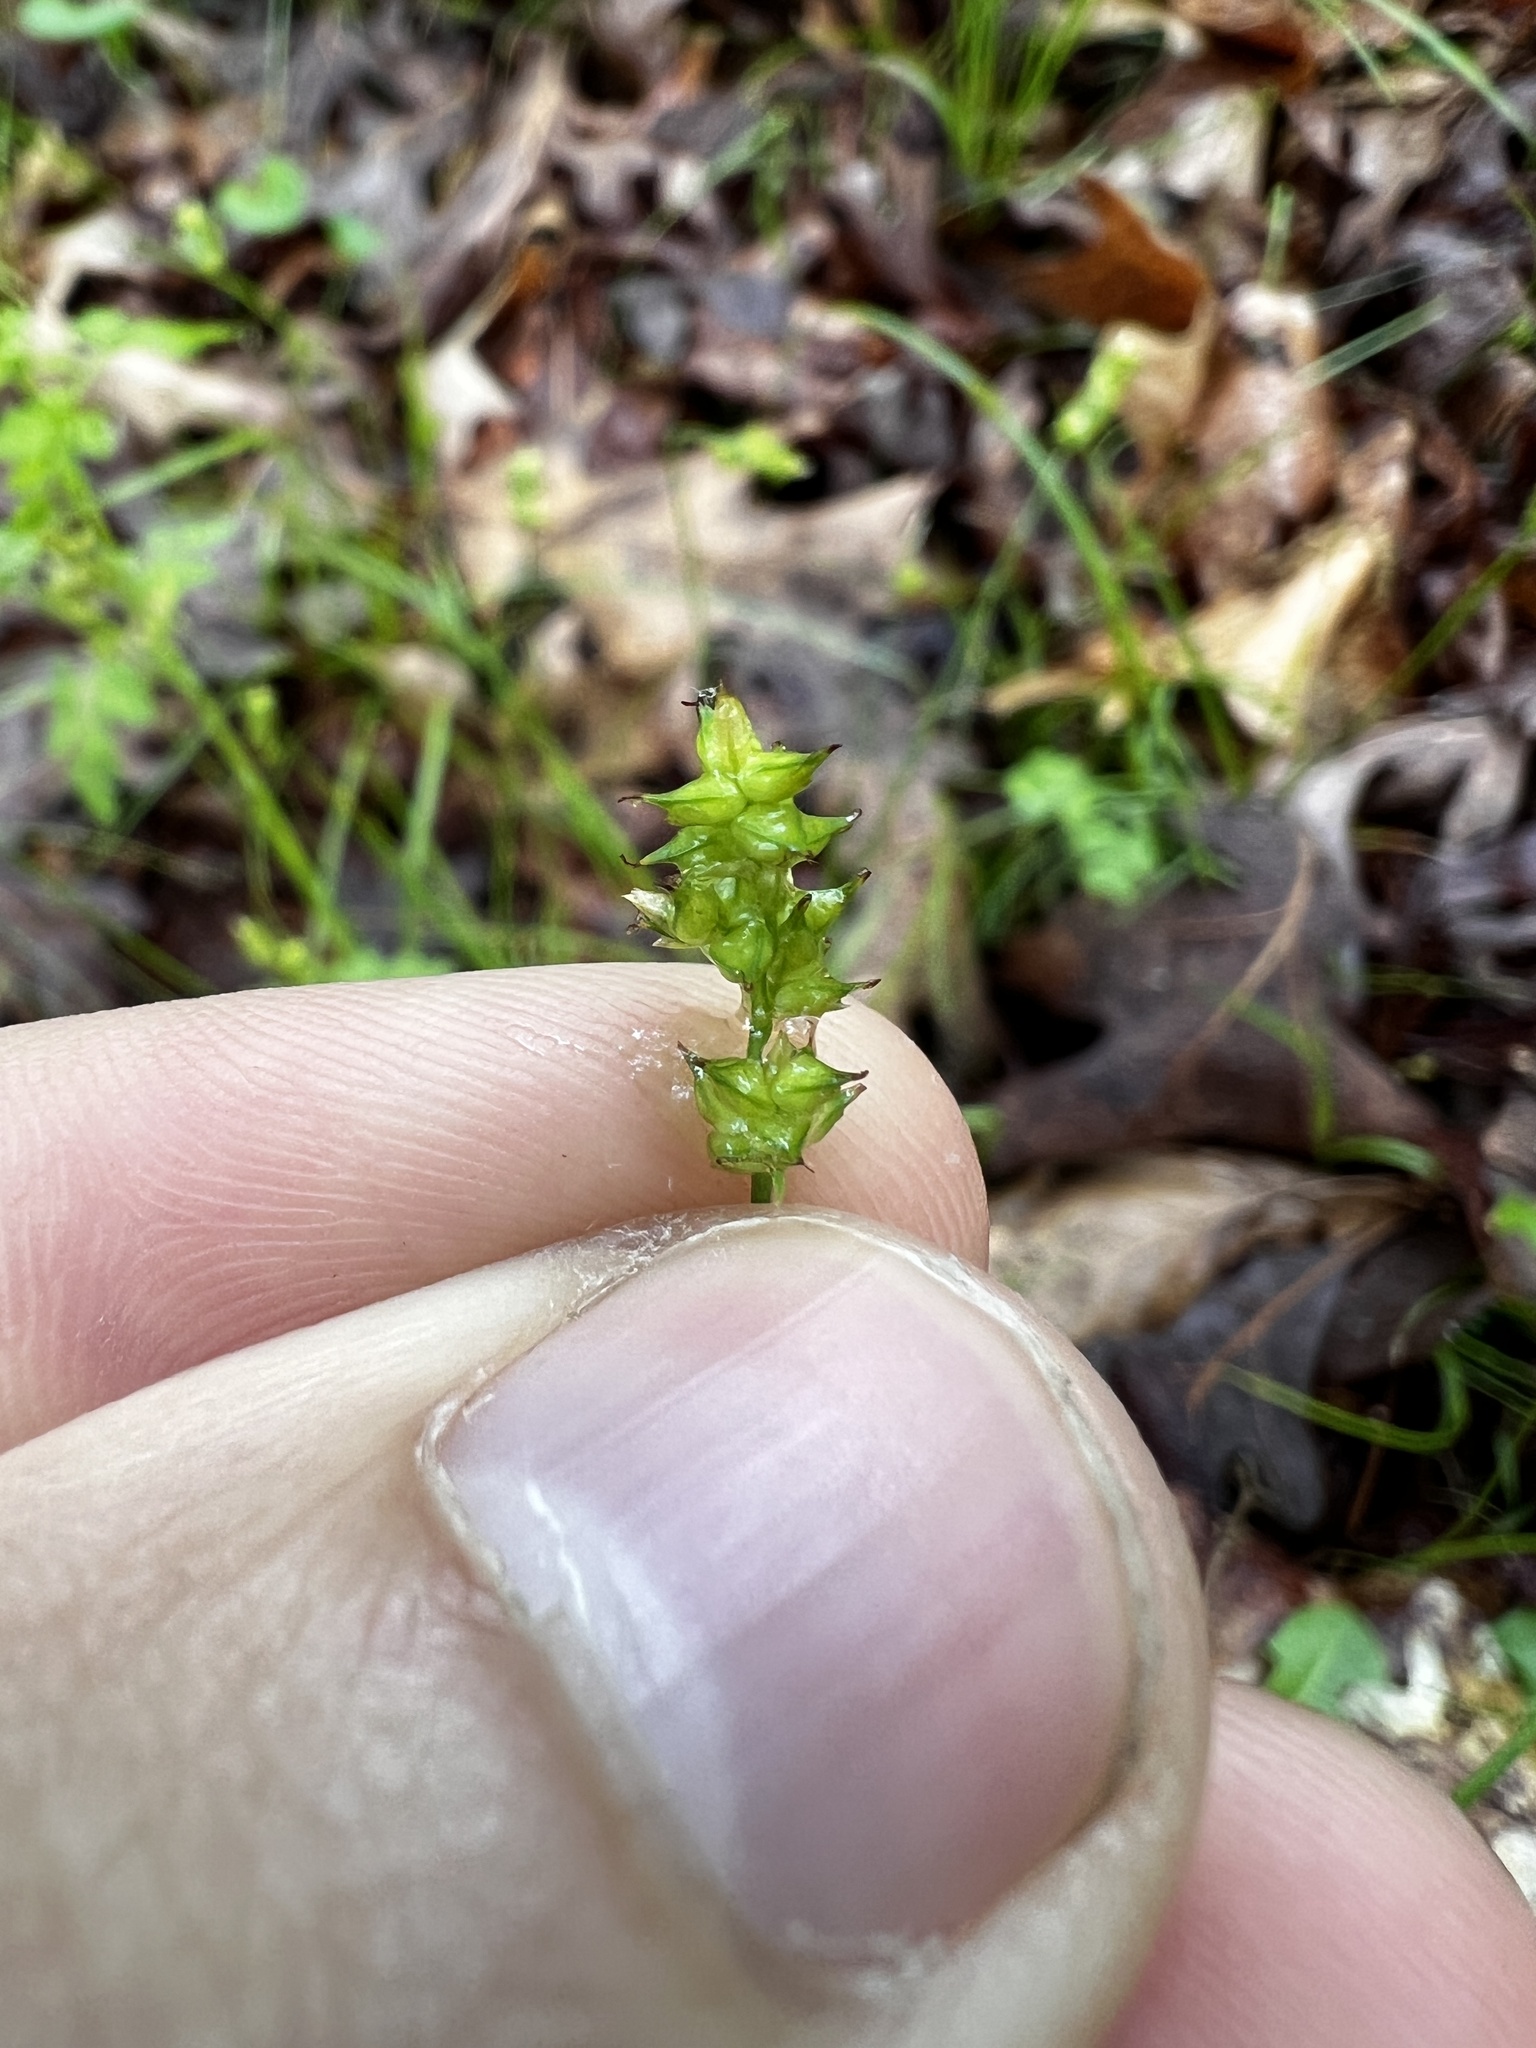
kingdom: Plantae
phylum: Tracheophyta
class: Liliopsida
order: Poales
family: Cyperaceae
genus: Carex
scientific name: Carex retroflexa
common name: Reflexed sedge
